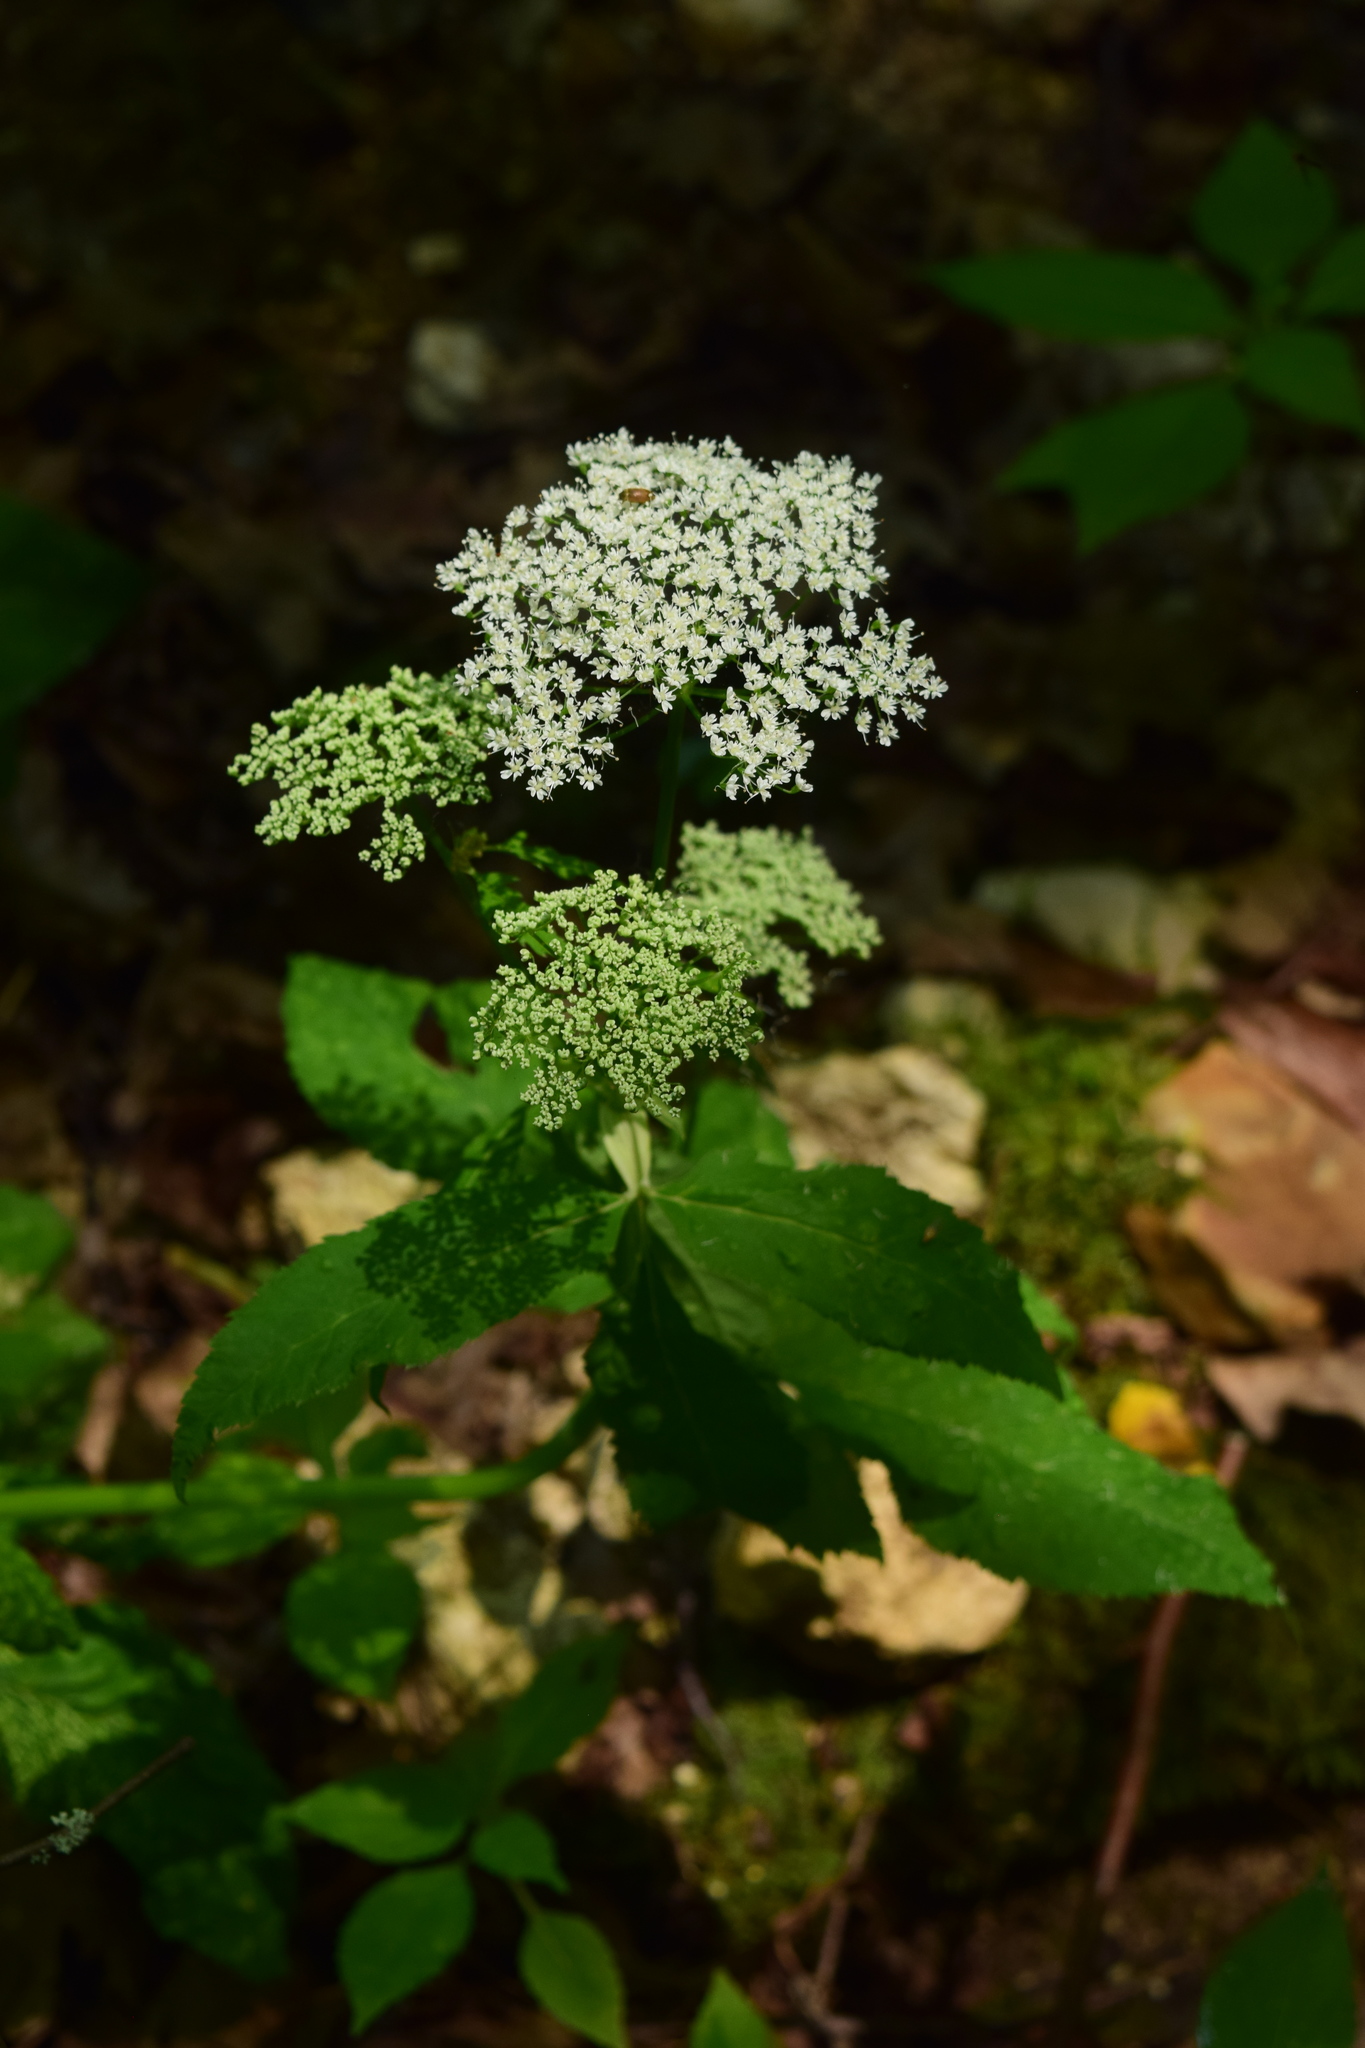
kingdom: Plantae
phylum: Tracheophyta
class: Magnoliopsida
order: Apiales
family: Apiaceae
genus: Aegopodium
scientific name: Aegopodium podagraria
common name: Ground-elder
